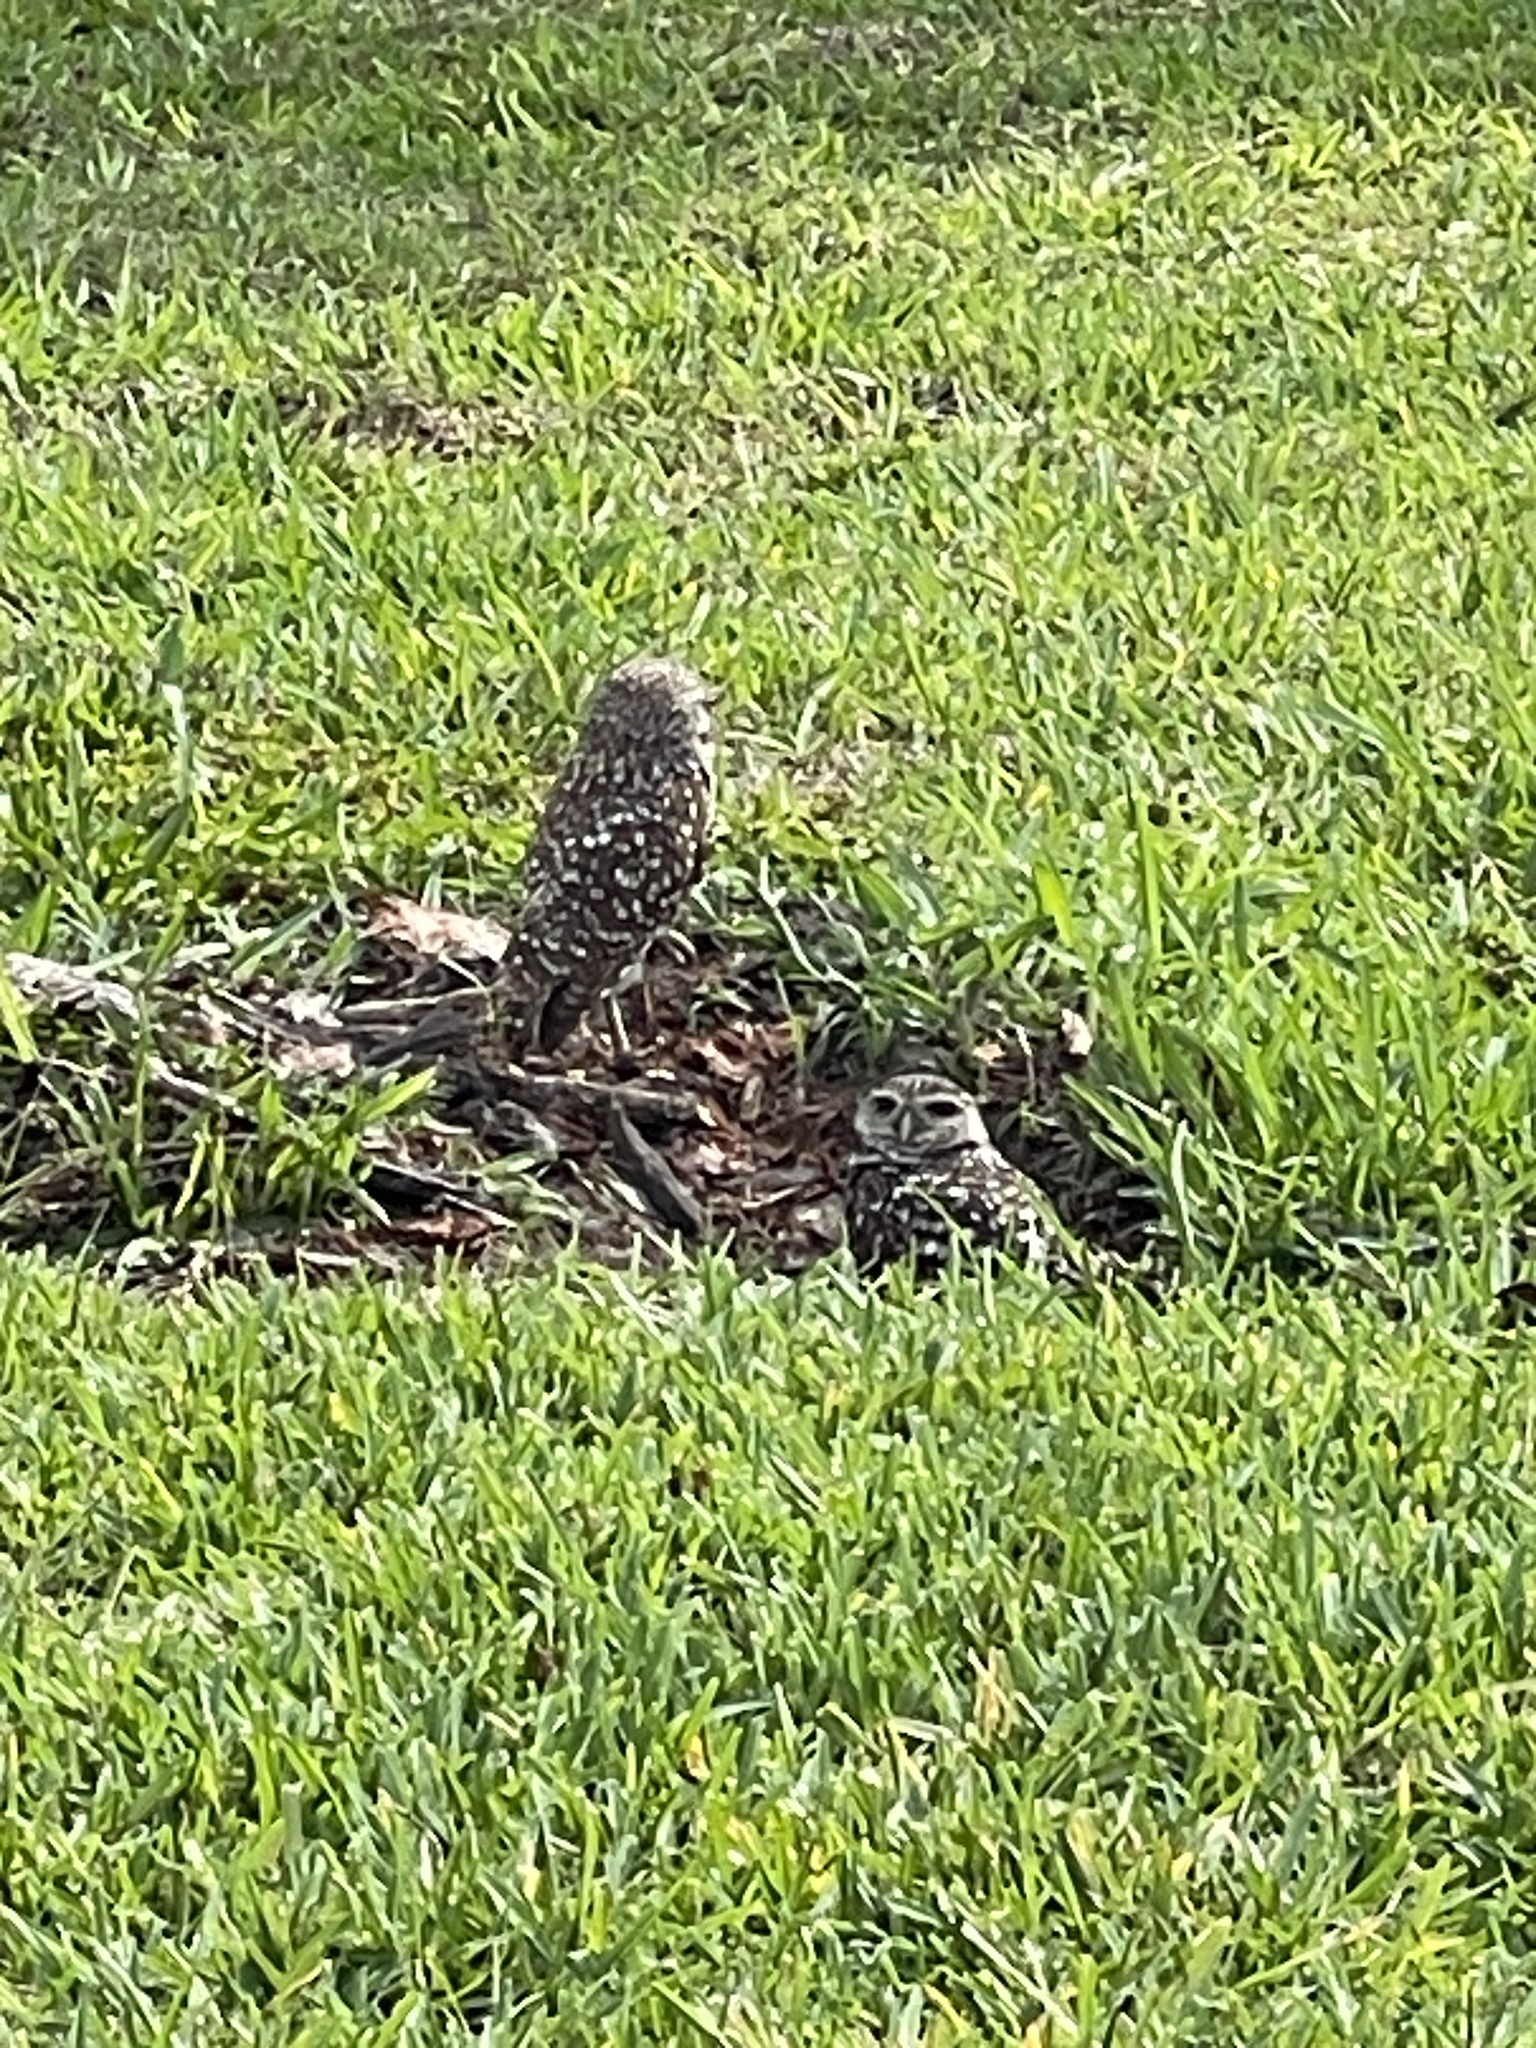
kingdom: Animalia
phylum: Chordata
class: Aves
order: Strigiformes
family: Strigidae
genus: Athene
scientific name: Athene cunicularia
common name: Burrowing owl
